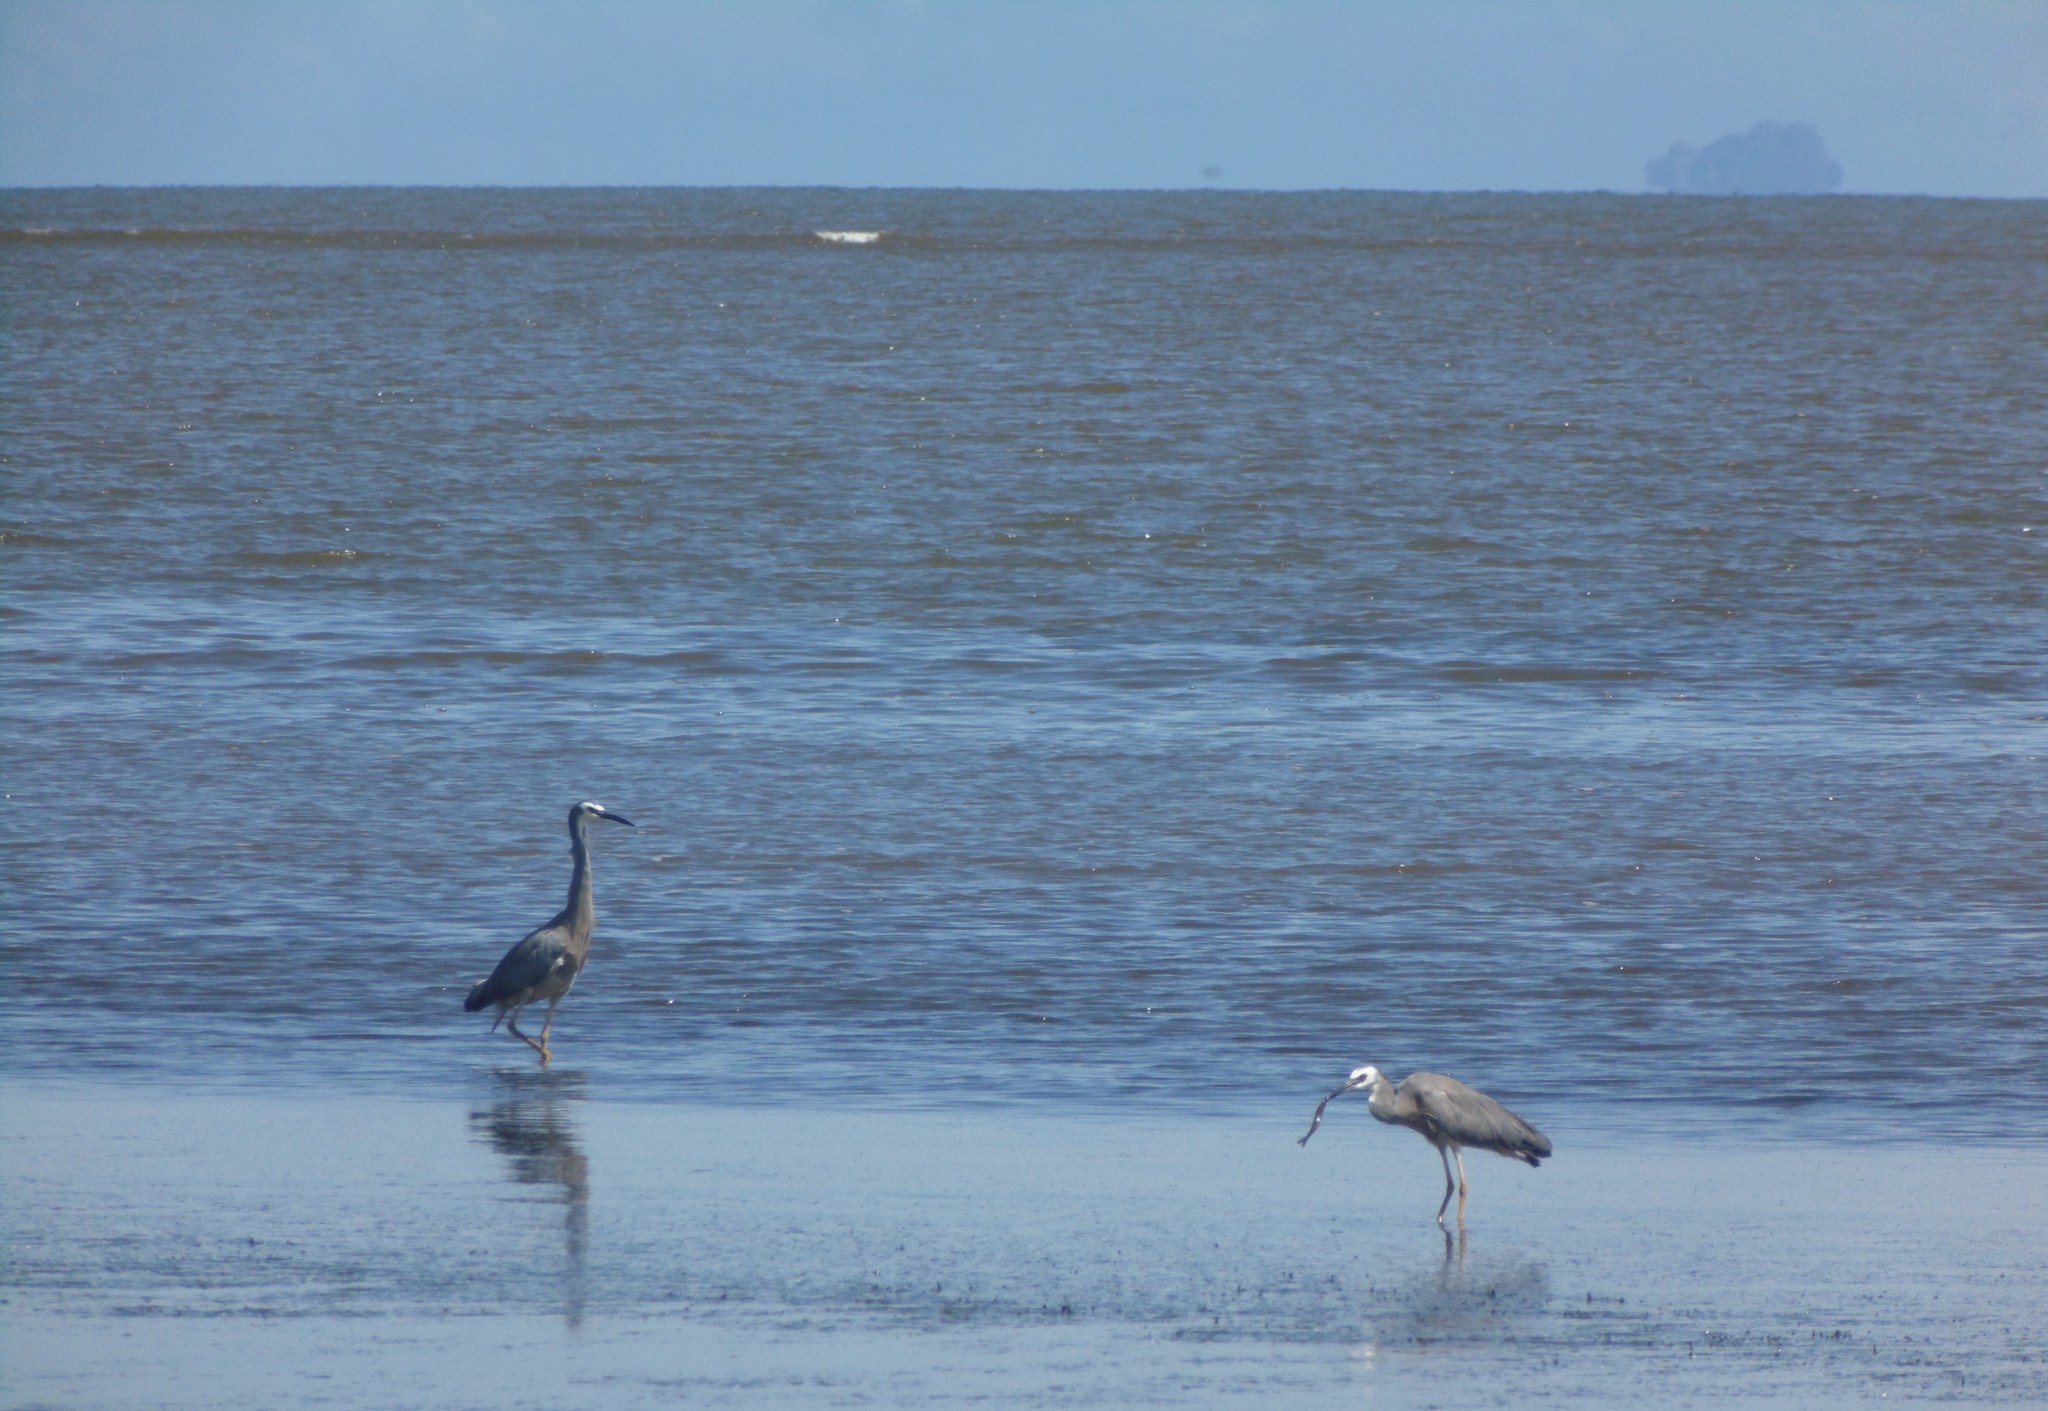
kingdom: Animalia
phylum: Chordata
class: Aves
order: Pelecaniformes
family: Ardeidae
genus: Egretta
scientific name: Egretta novaehollandiae
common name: White-faced heron
